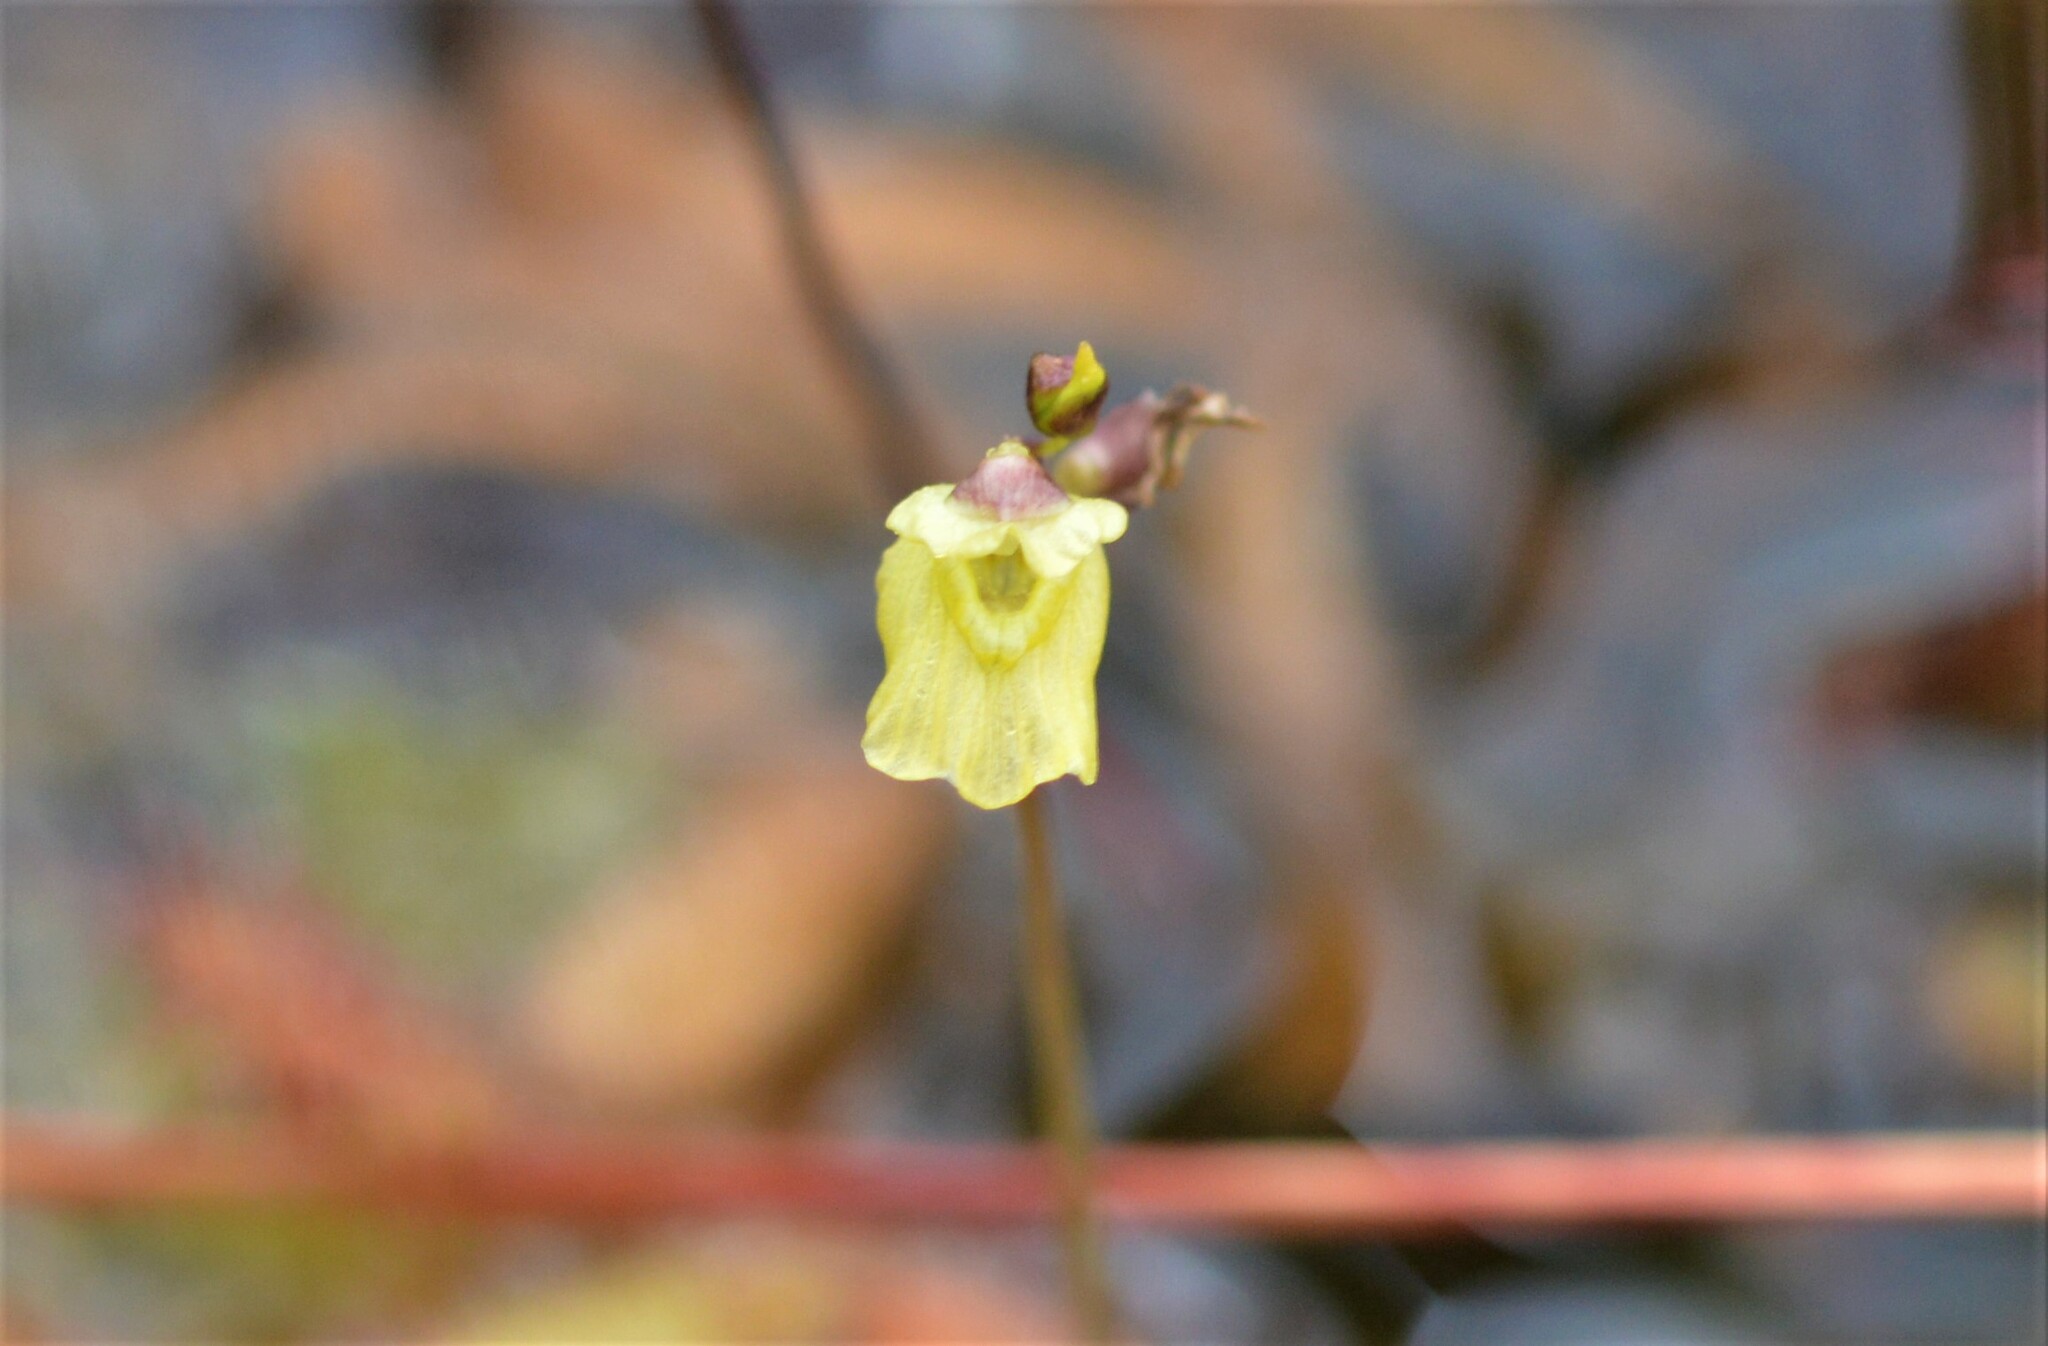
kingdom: Plantae
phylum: Tracheophyta
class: Magnoliopsida
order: Lamiales
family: Lentibulariaceae
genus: Utricularia
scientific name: Utricularia minor
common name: Lesser bladderwort
